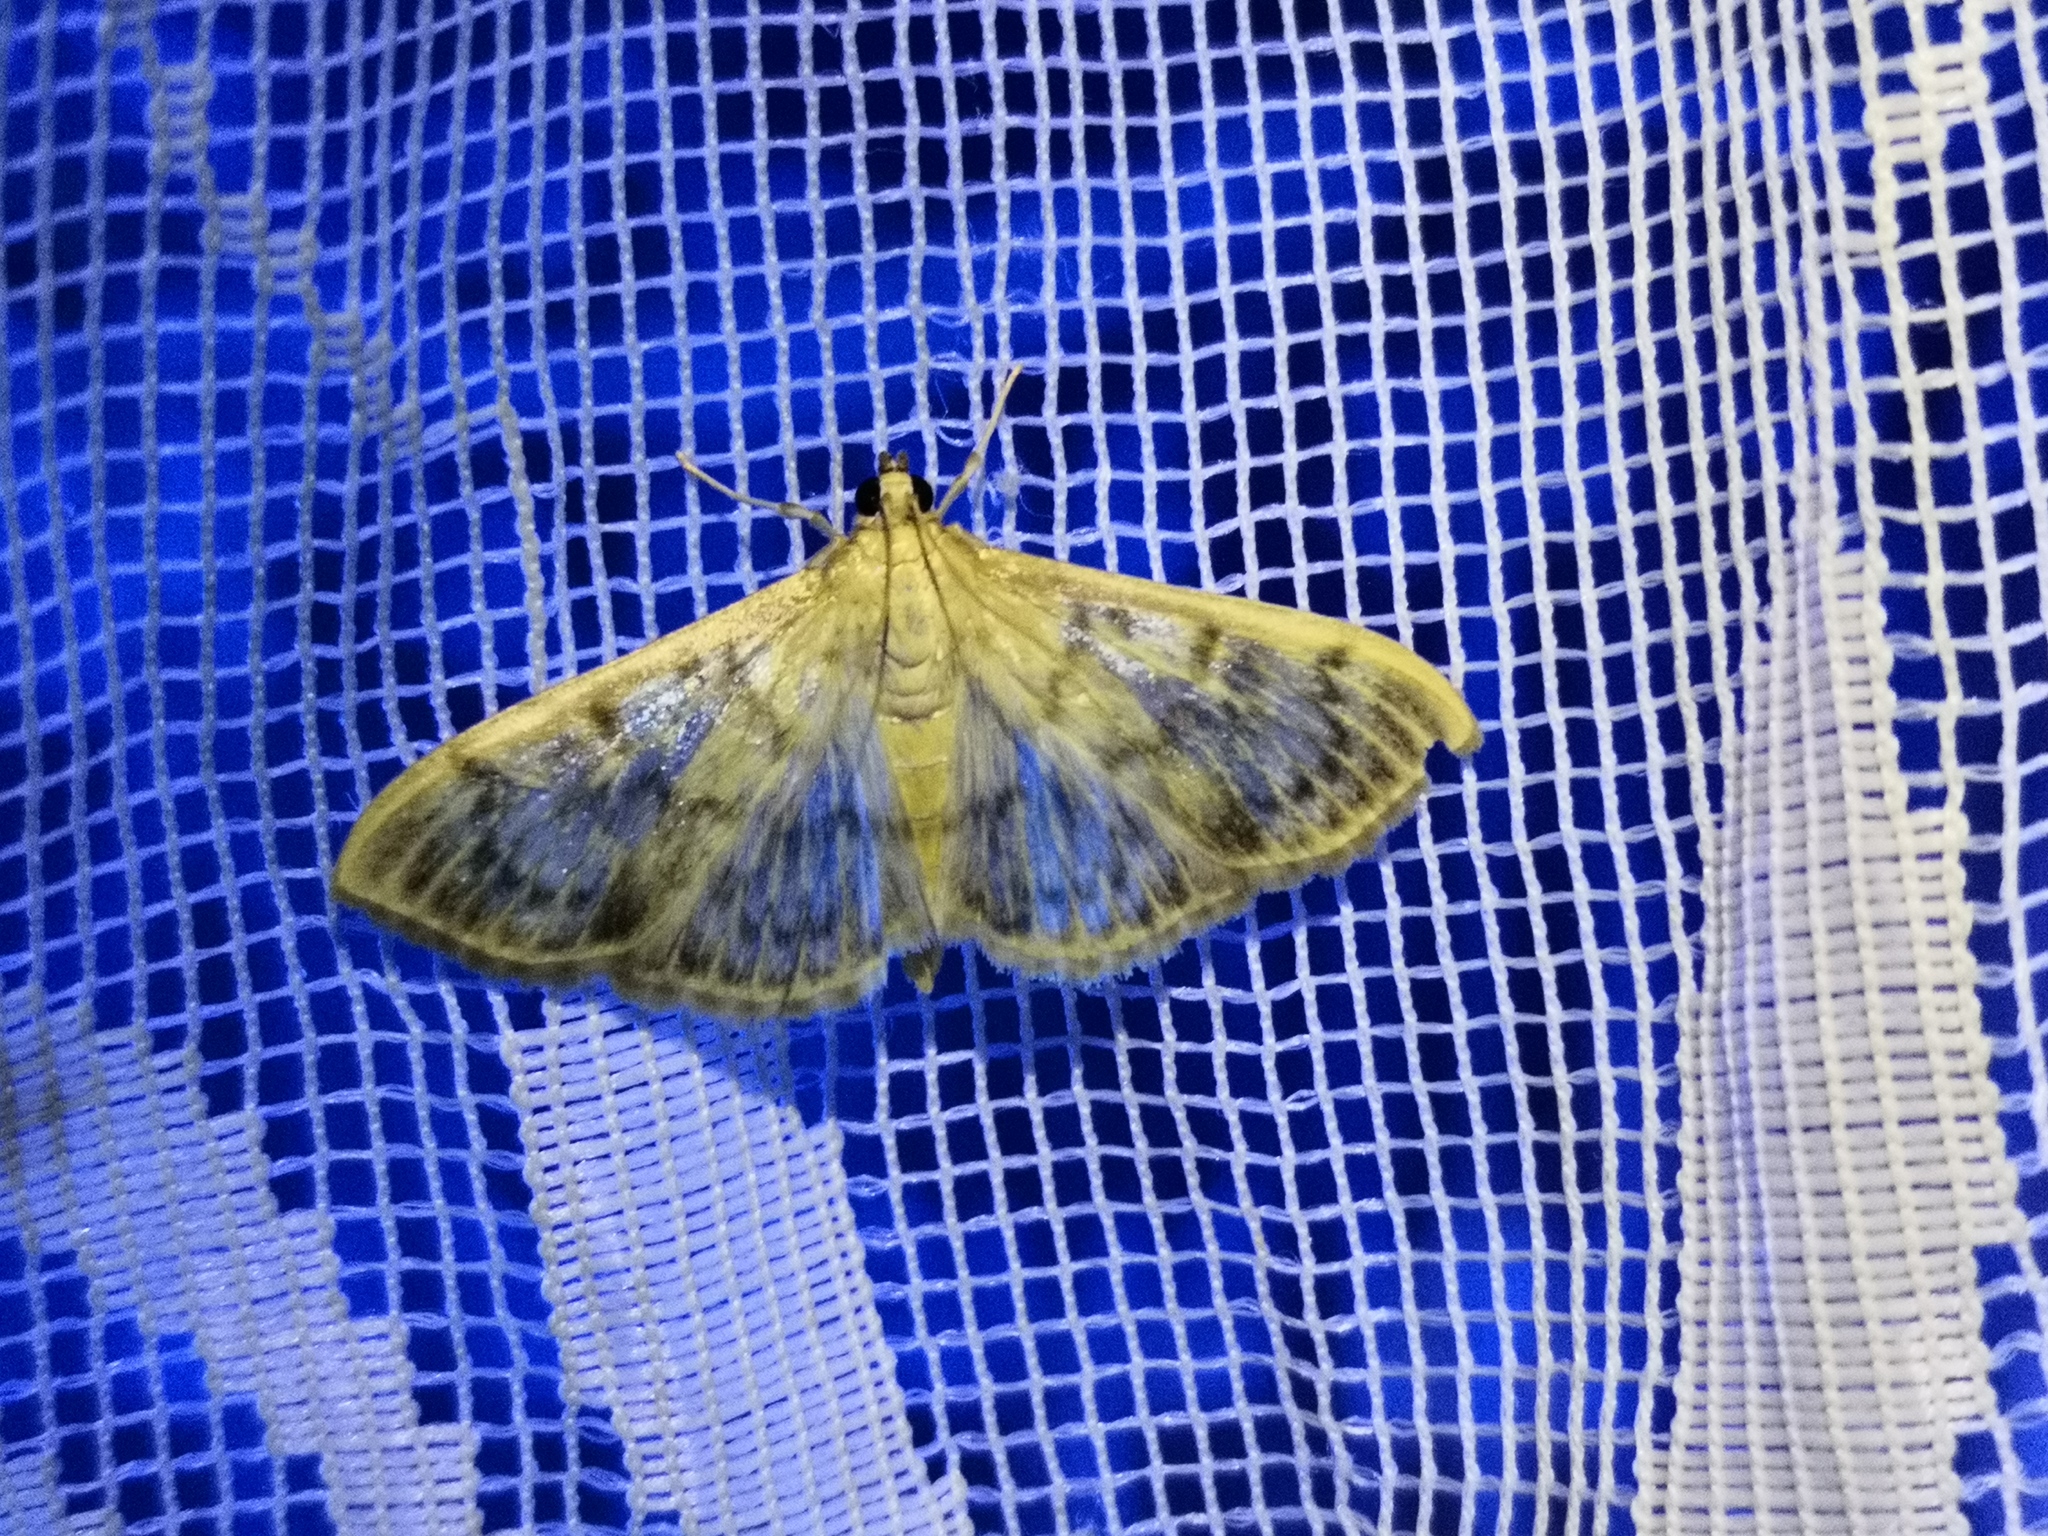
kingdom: Animalia
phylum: Arthropoda
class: Insecta
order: Lepidoptera
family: Crambidae
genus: Patania
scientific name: Patania ruralis
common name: Mother of pearl
